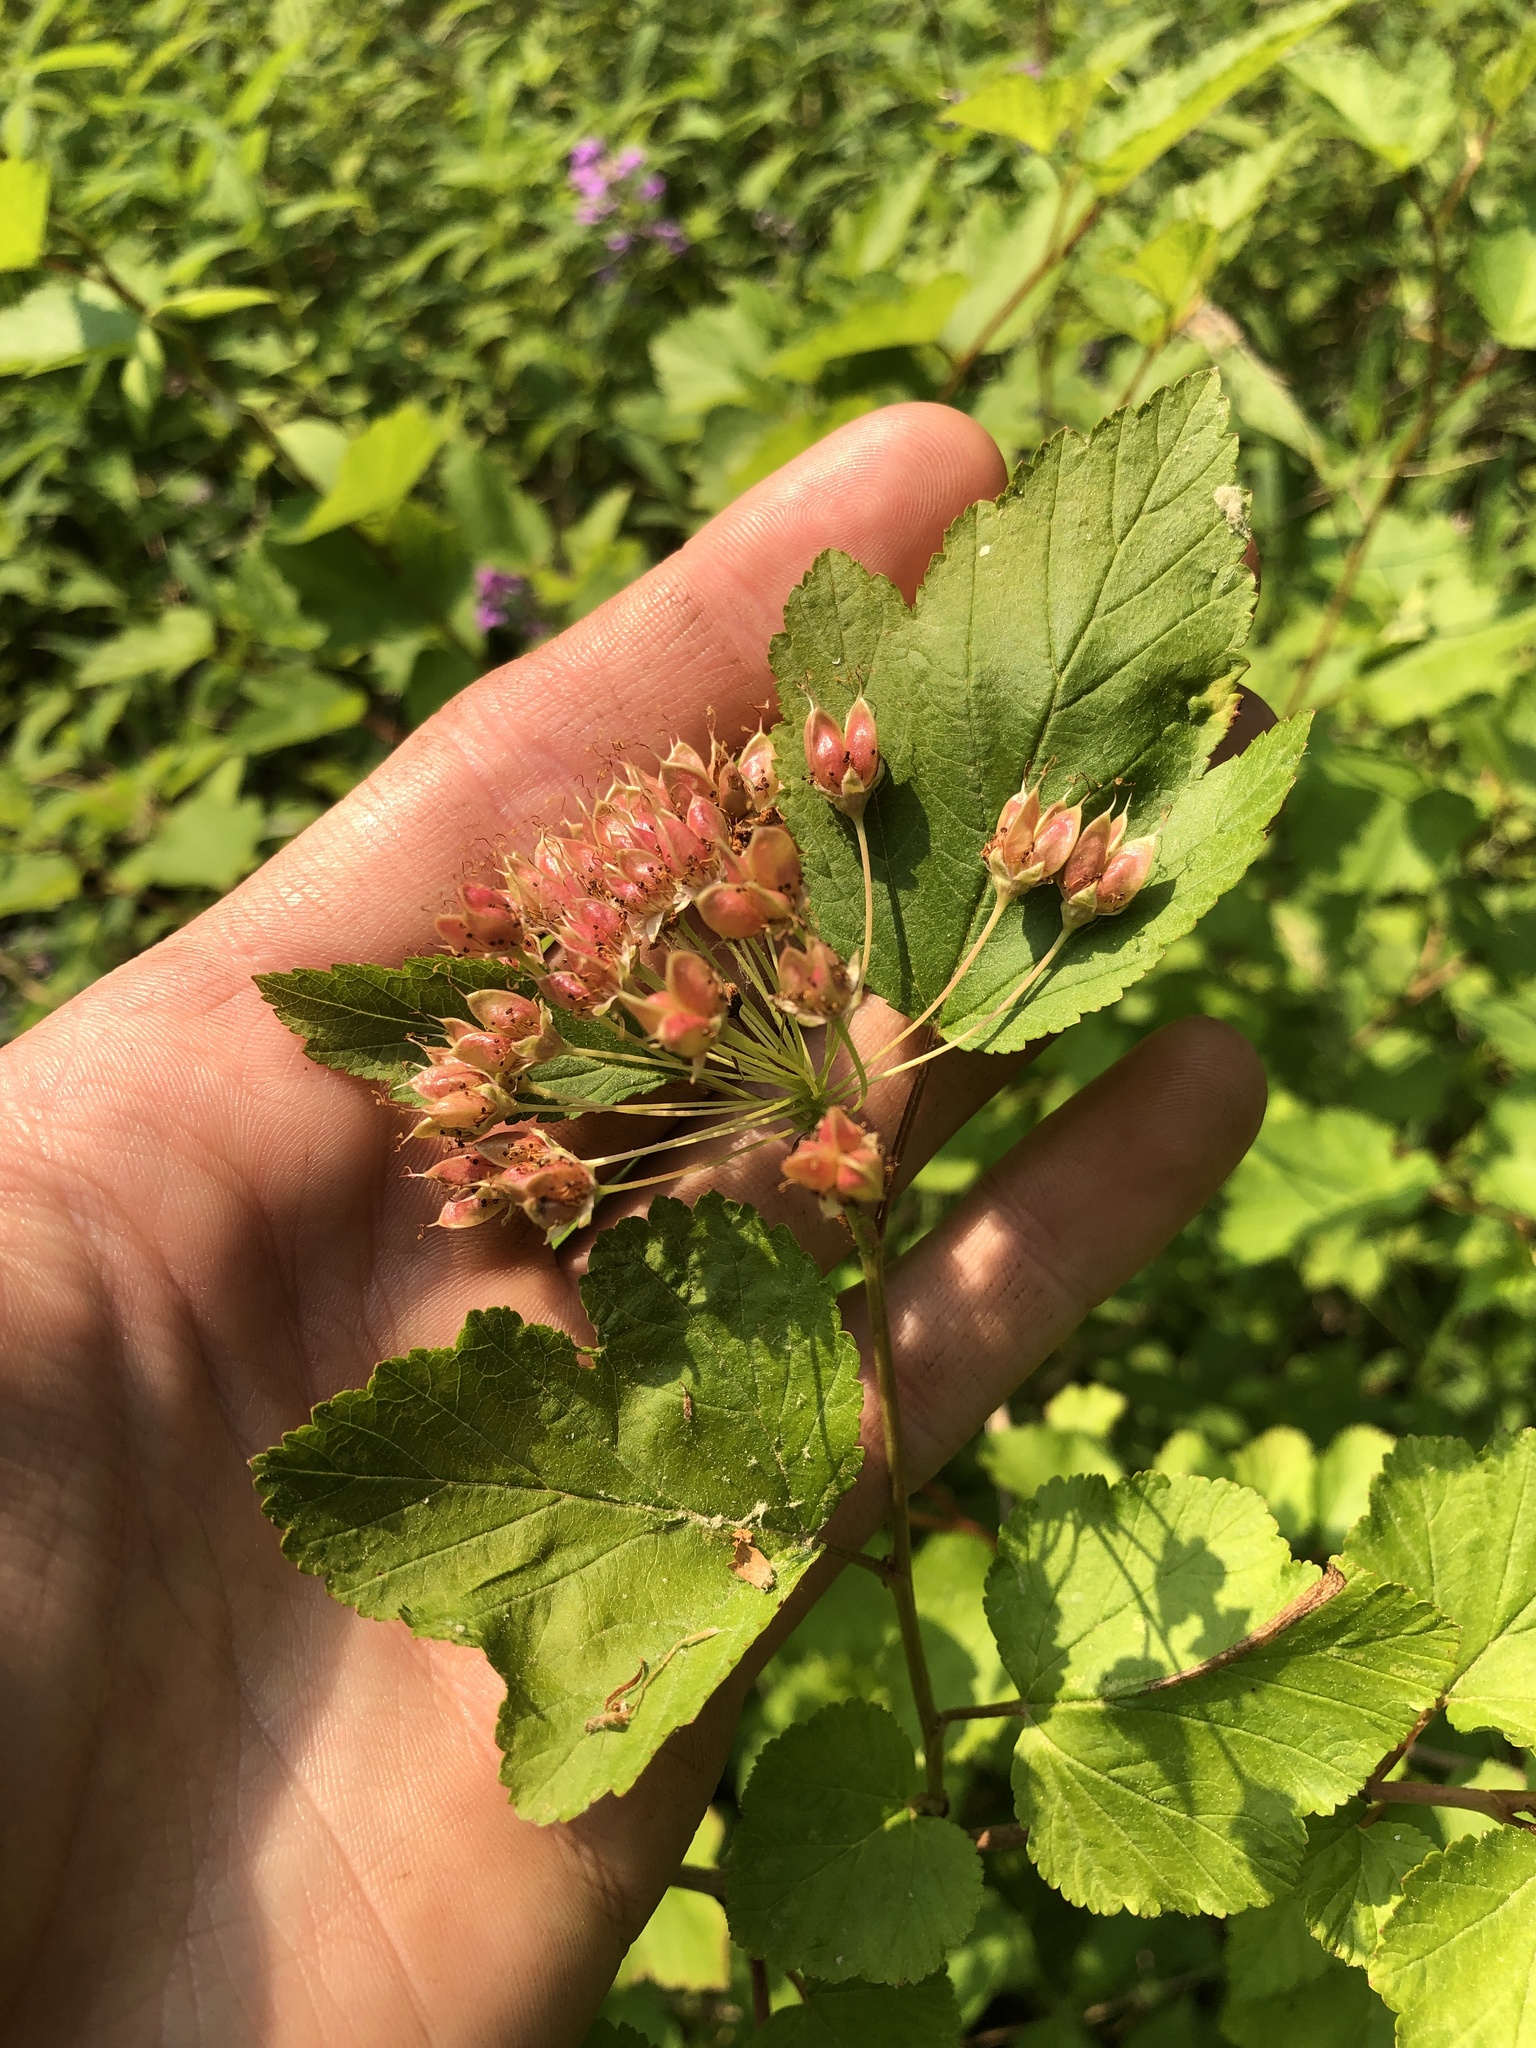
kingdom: Plantae
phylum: Tracheophyta
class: Magnoliopsida
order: Rosales
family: Rosaceae
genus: Physocarpus
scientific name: Physocarpus opulifolius
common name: Ninebark
